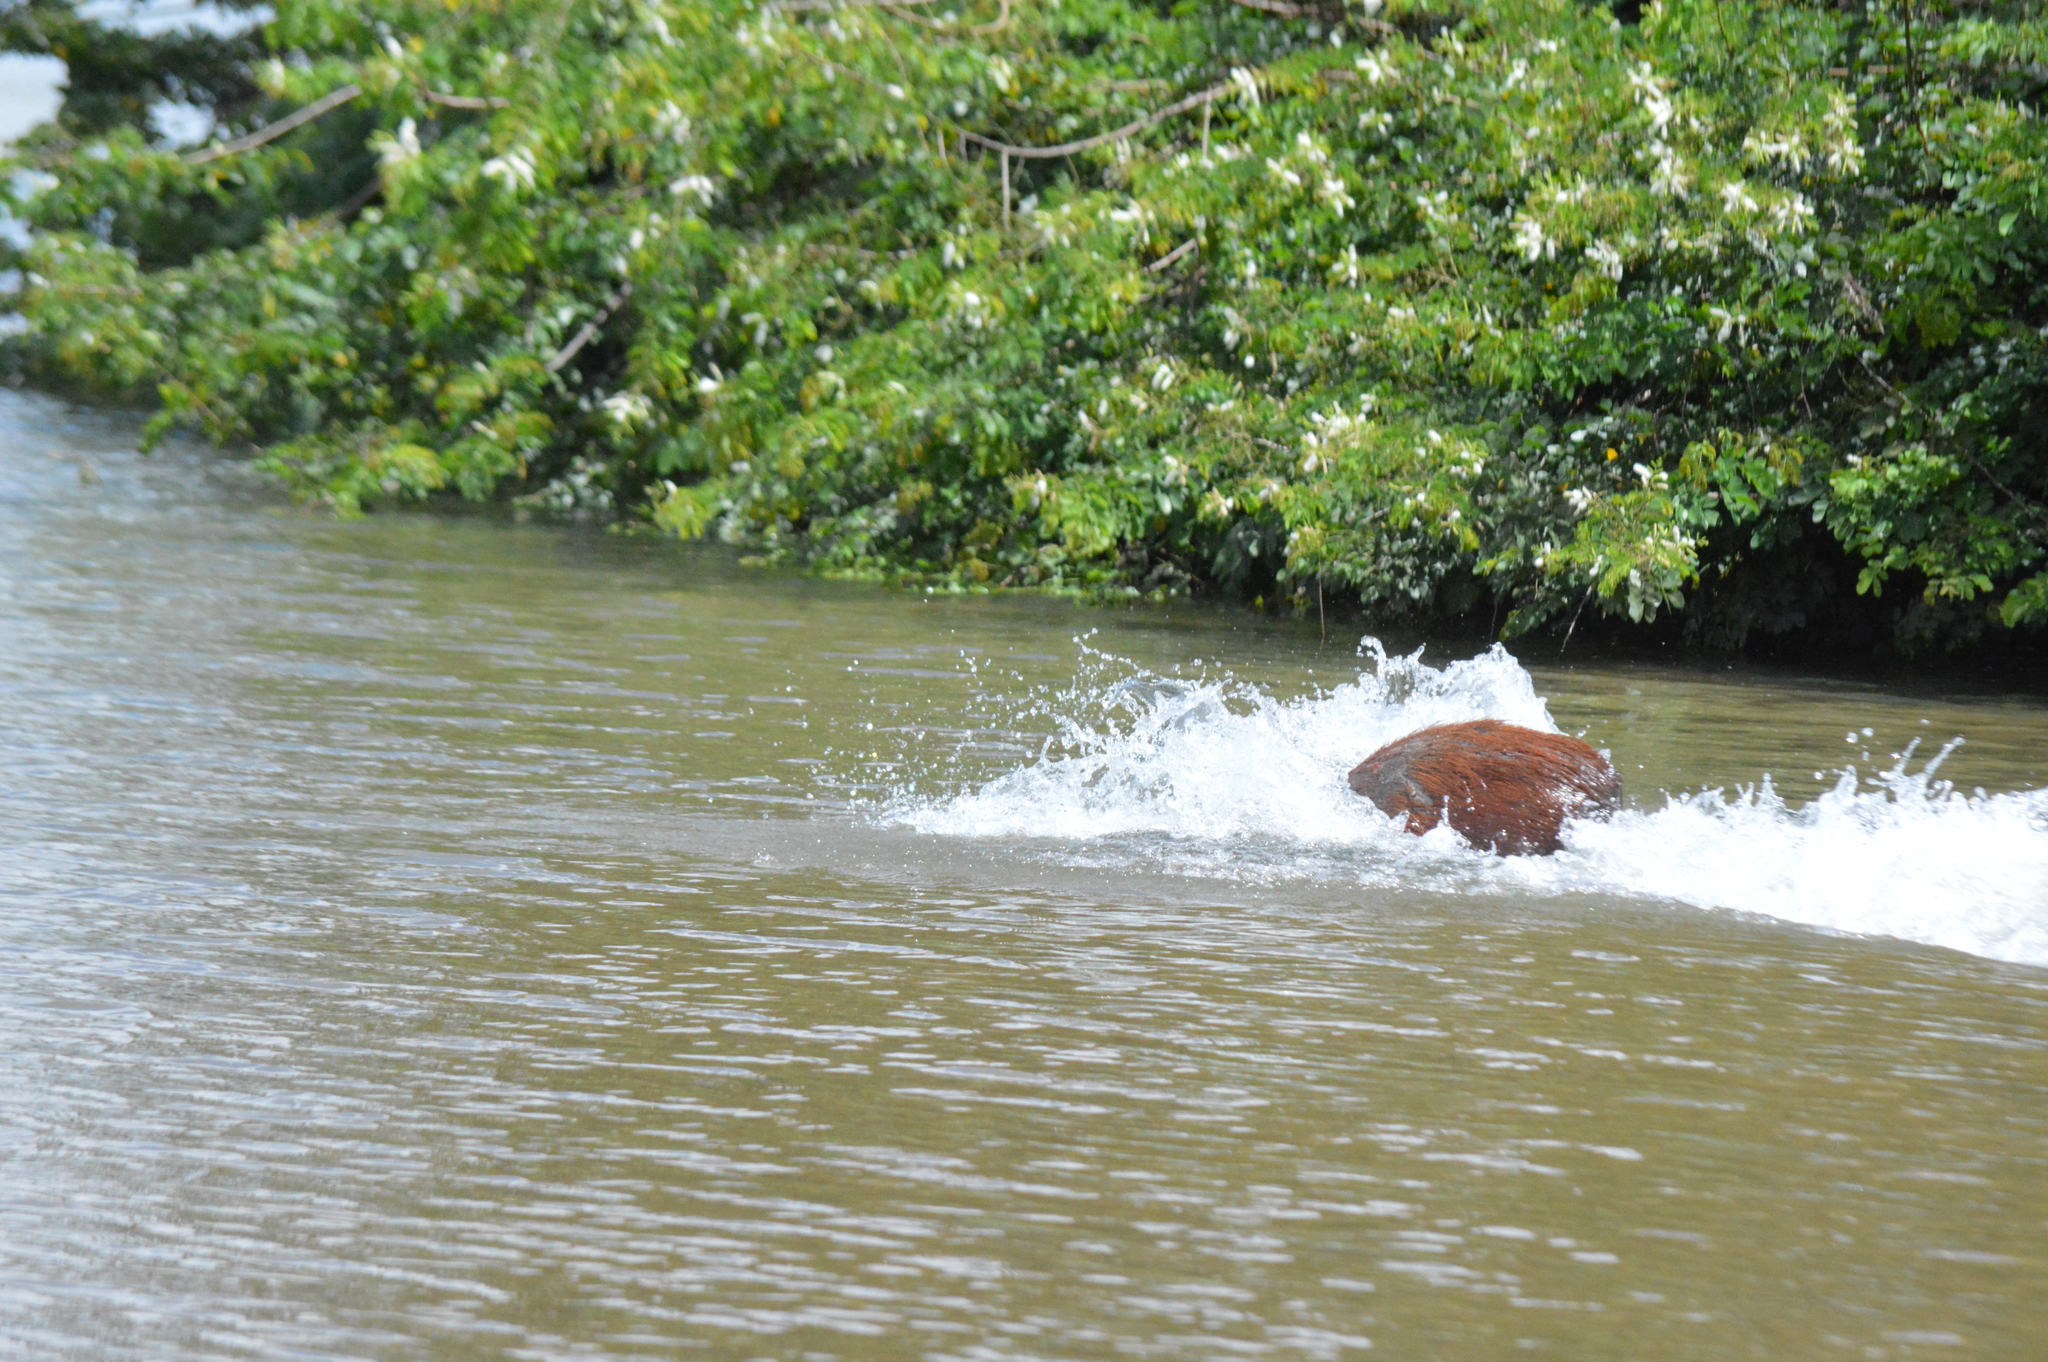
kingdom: Animalia
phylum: Chordata
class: Mammalia
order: Rodentia
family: Caviidae
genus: Hydrochoerus
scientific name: Hydrochoerus hydrochaeris
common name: Capybara
